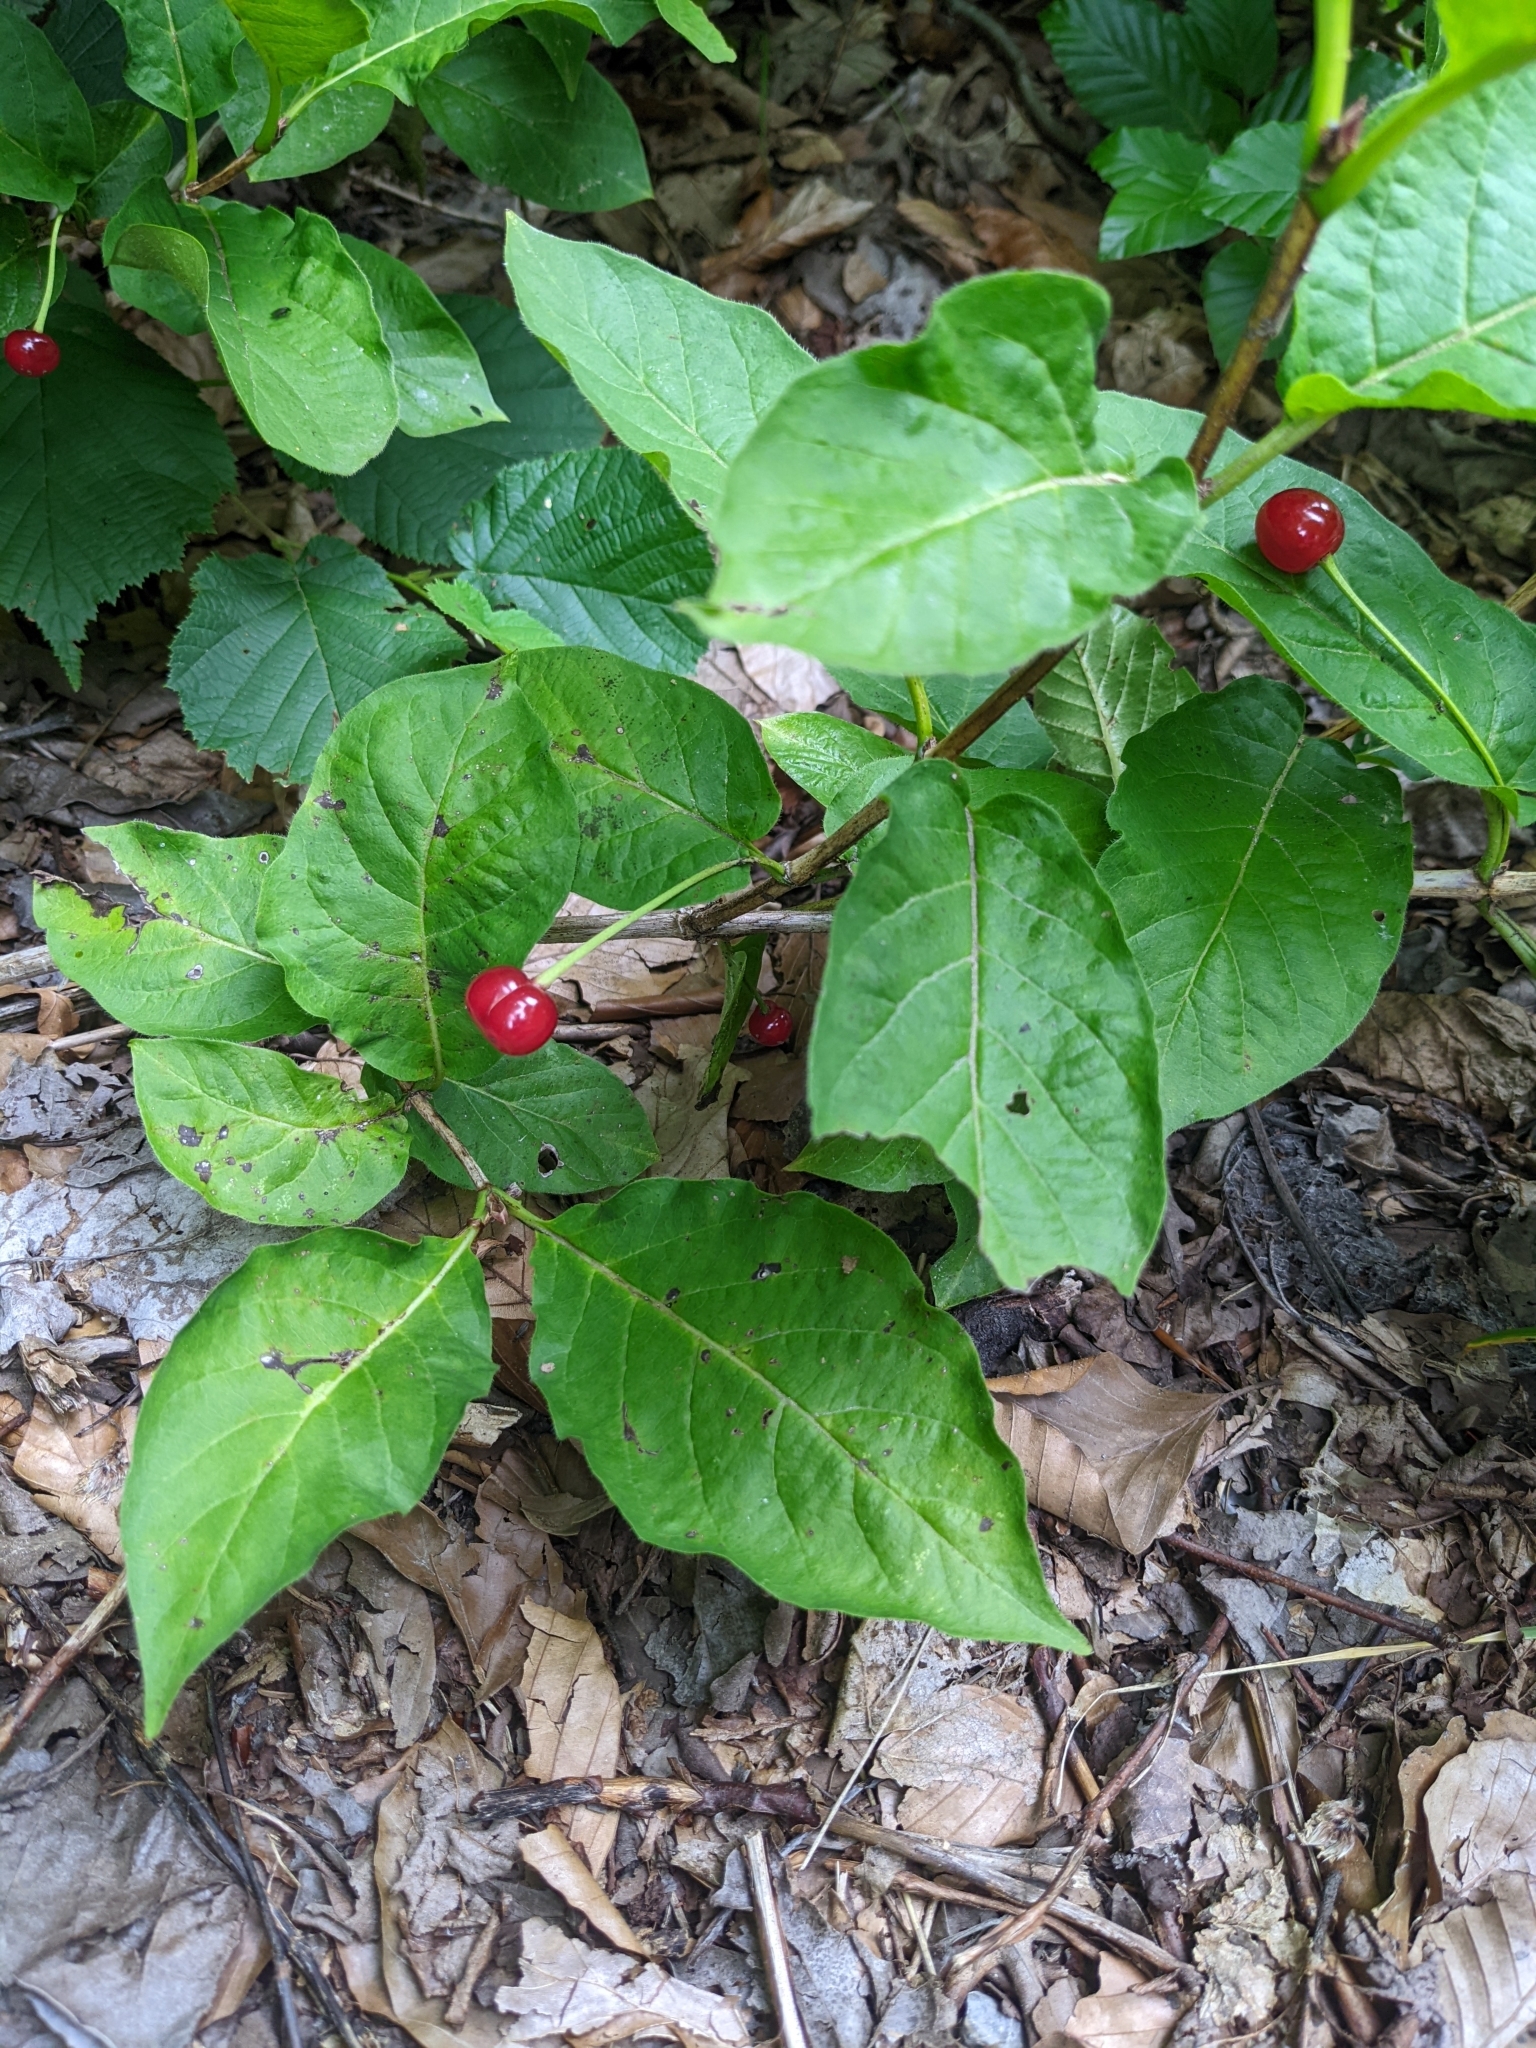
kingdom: Plantae
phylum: Tracheophyta
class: Magnoliopsida
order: Dipsacales
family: Caprifoliaceae
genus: Lonicera
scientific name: Lonicera alpigena
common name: Alpine honeysuckle
